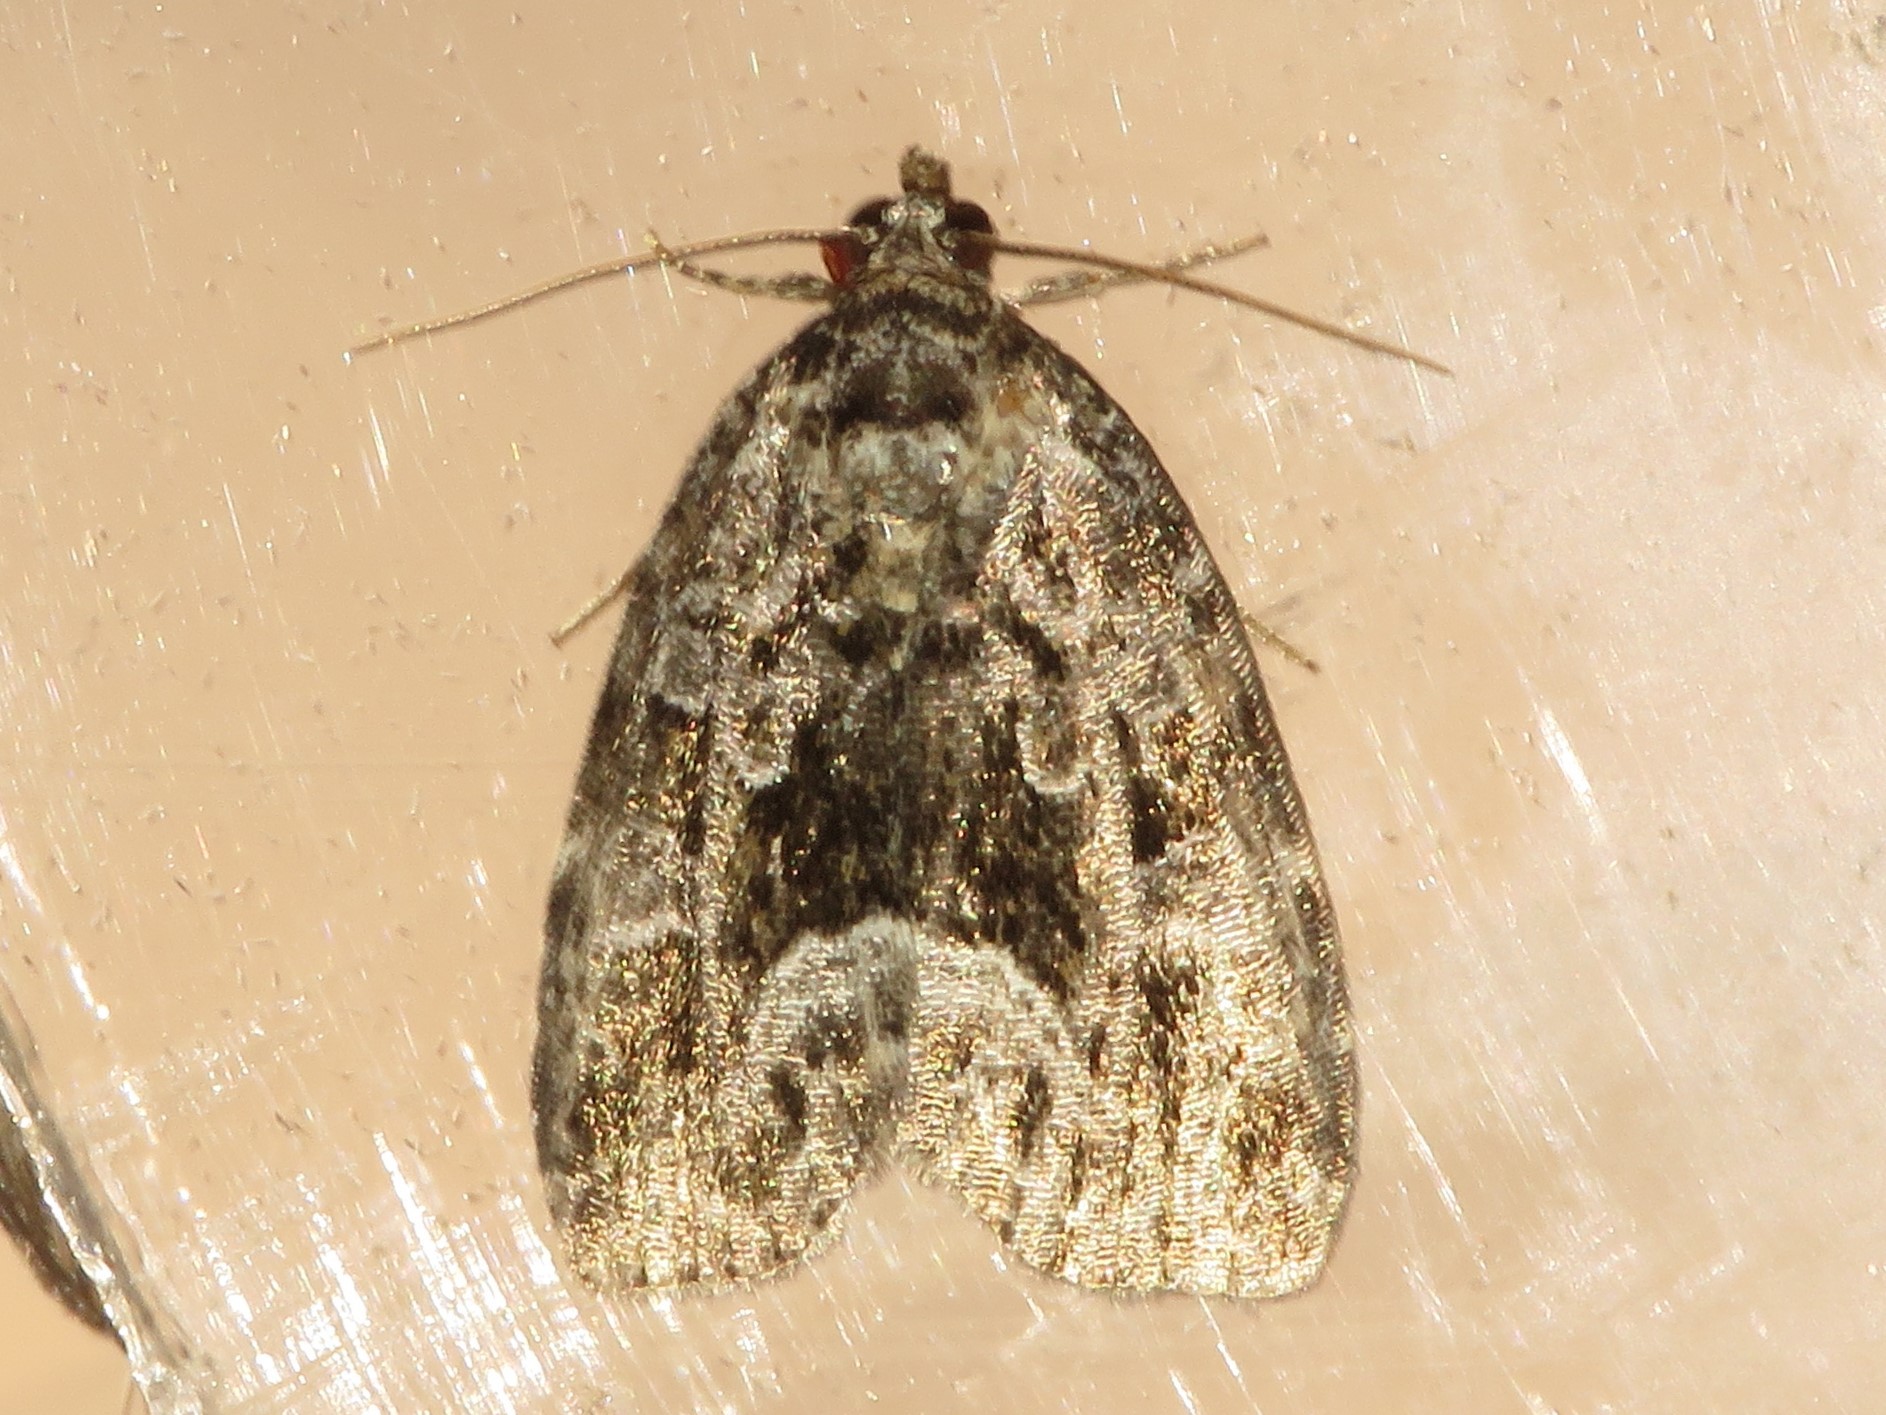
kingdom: Animalia
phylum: Arthropoda
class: Insecta
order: Lepidoptera
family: Noctuidae
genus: Protodeltote
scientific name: Protodeltote muscosula
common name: Large mossy glyph
